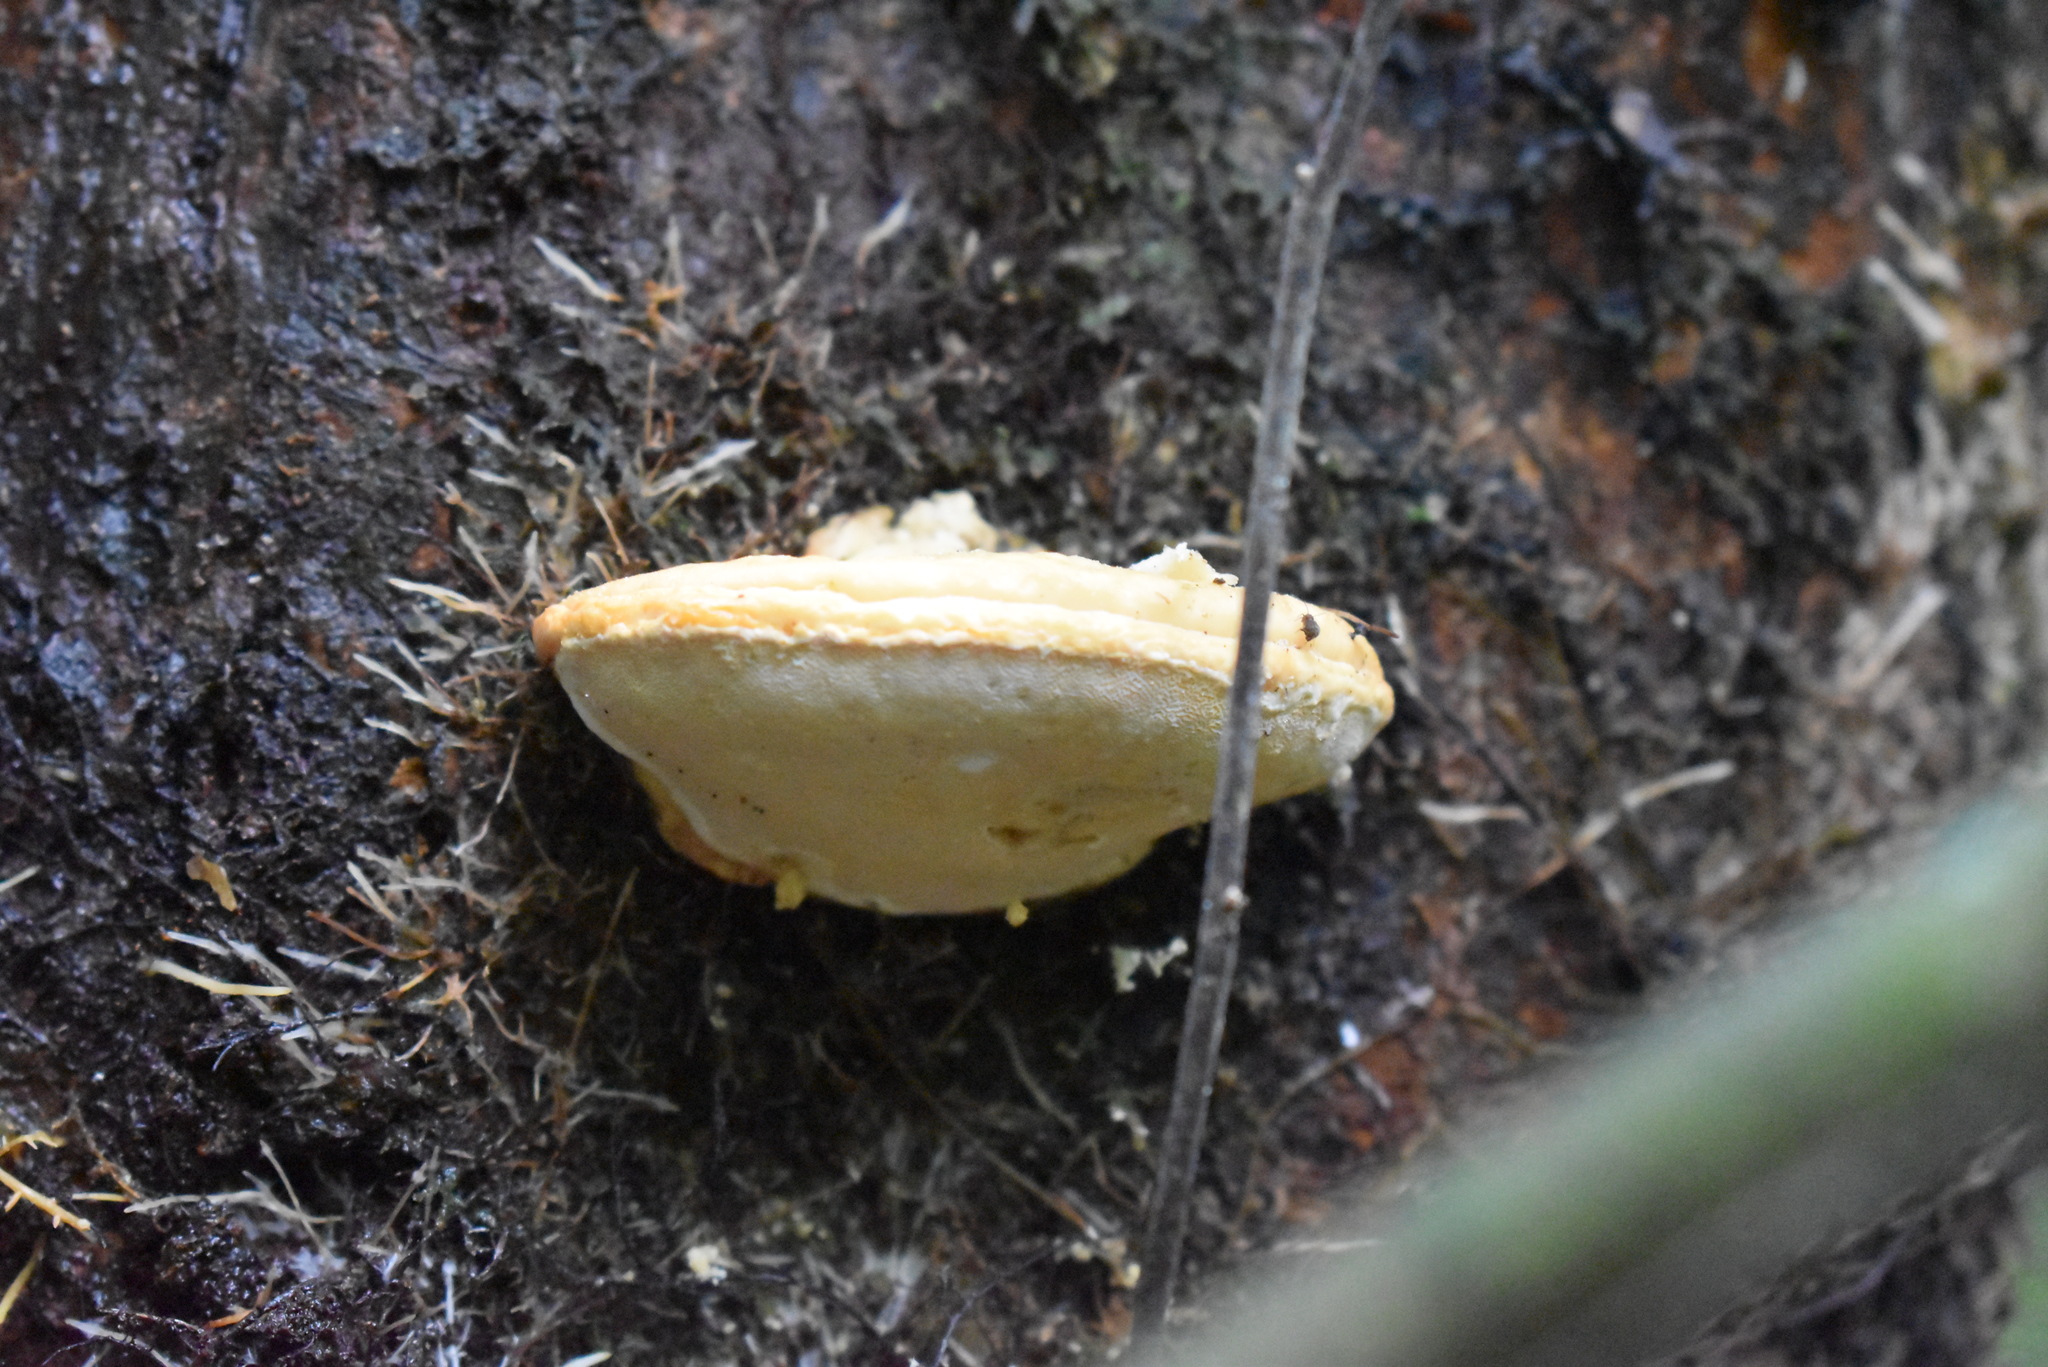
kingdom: Fungi
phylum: Basidiomycota
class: Agaricomycetes
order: Polyporales
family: Laetiporaceae
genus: Laetiporus
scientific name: Laetiporus portentosus
